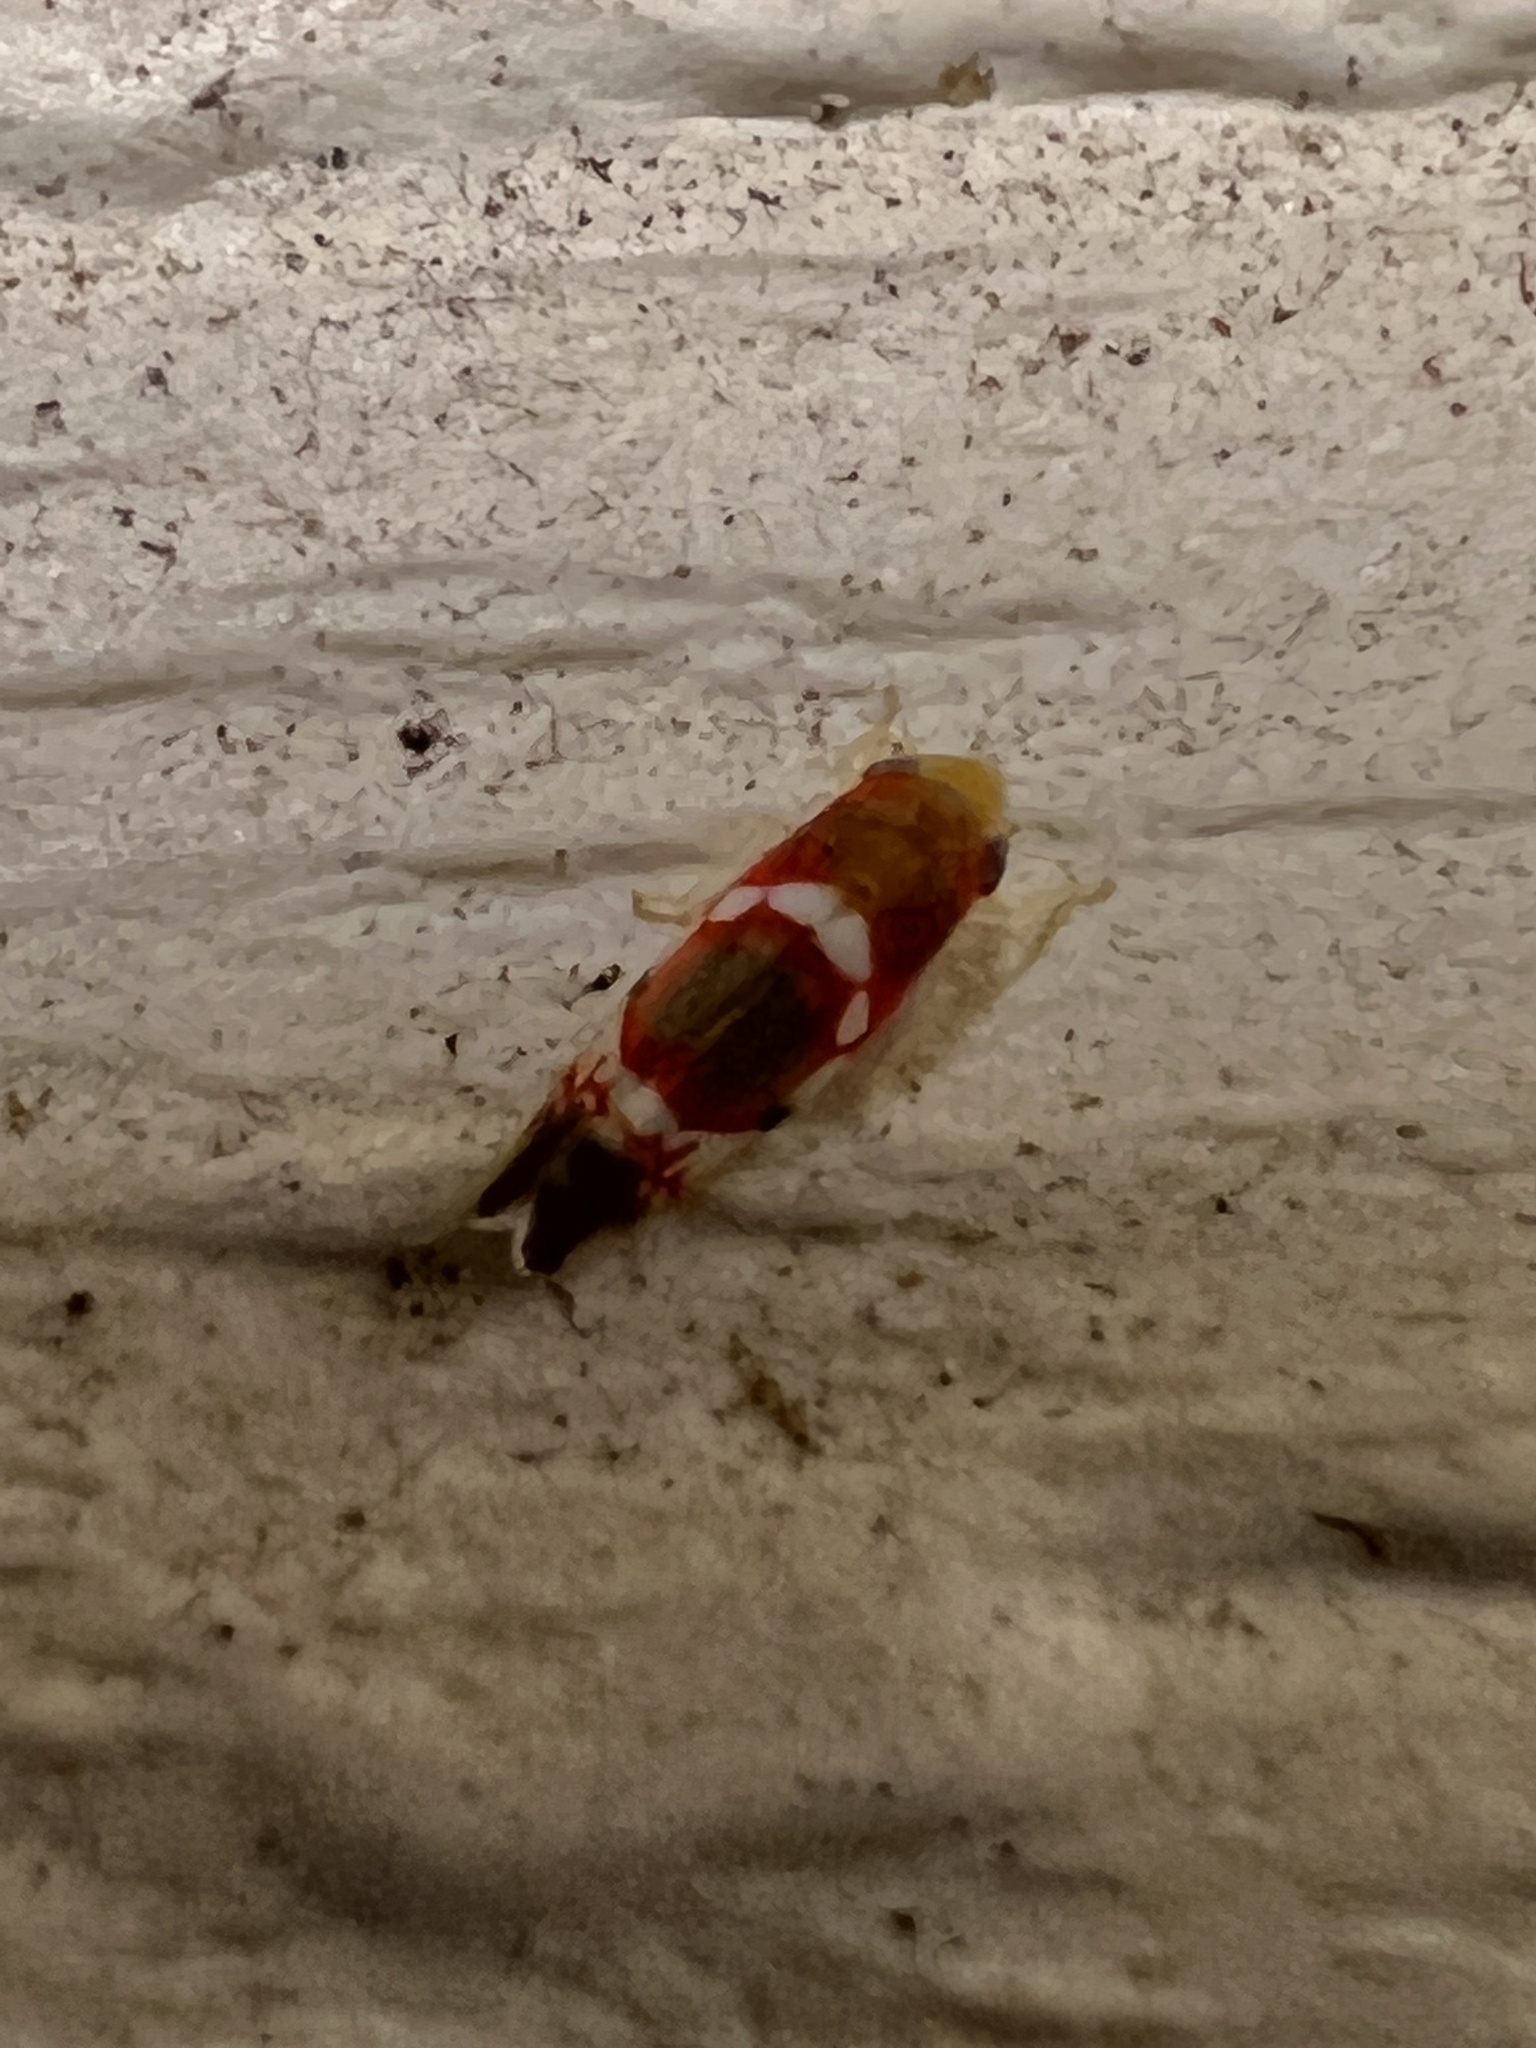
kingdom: Animalia
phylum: Arthropoda
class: Insecta
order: Hemiptera
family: Cicadellidae
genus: Erythroneura
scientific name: Erythroneura vitis
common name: Grapevine leafhopper
